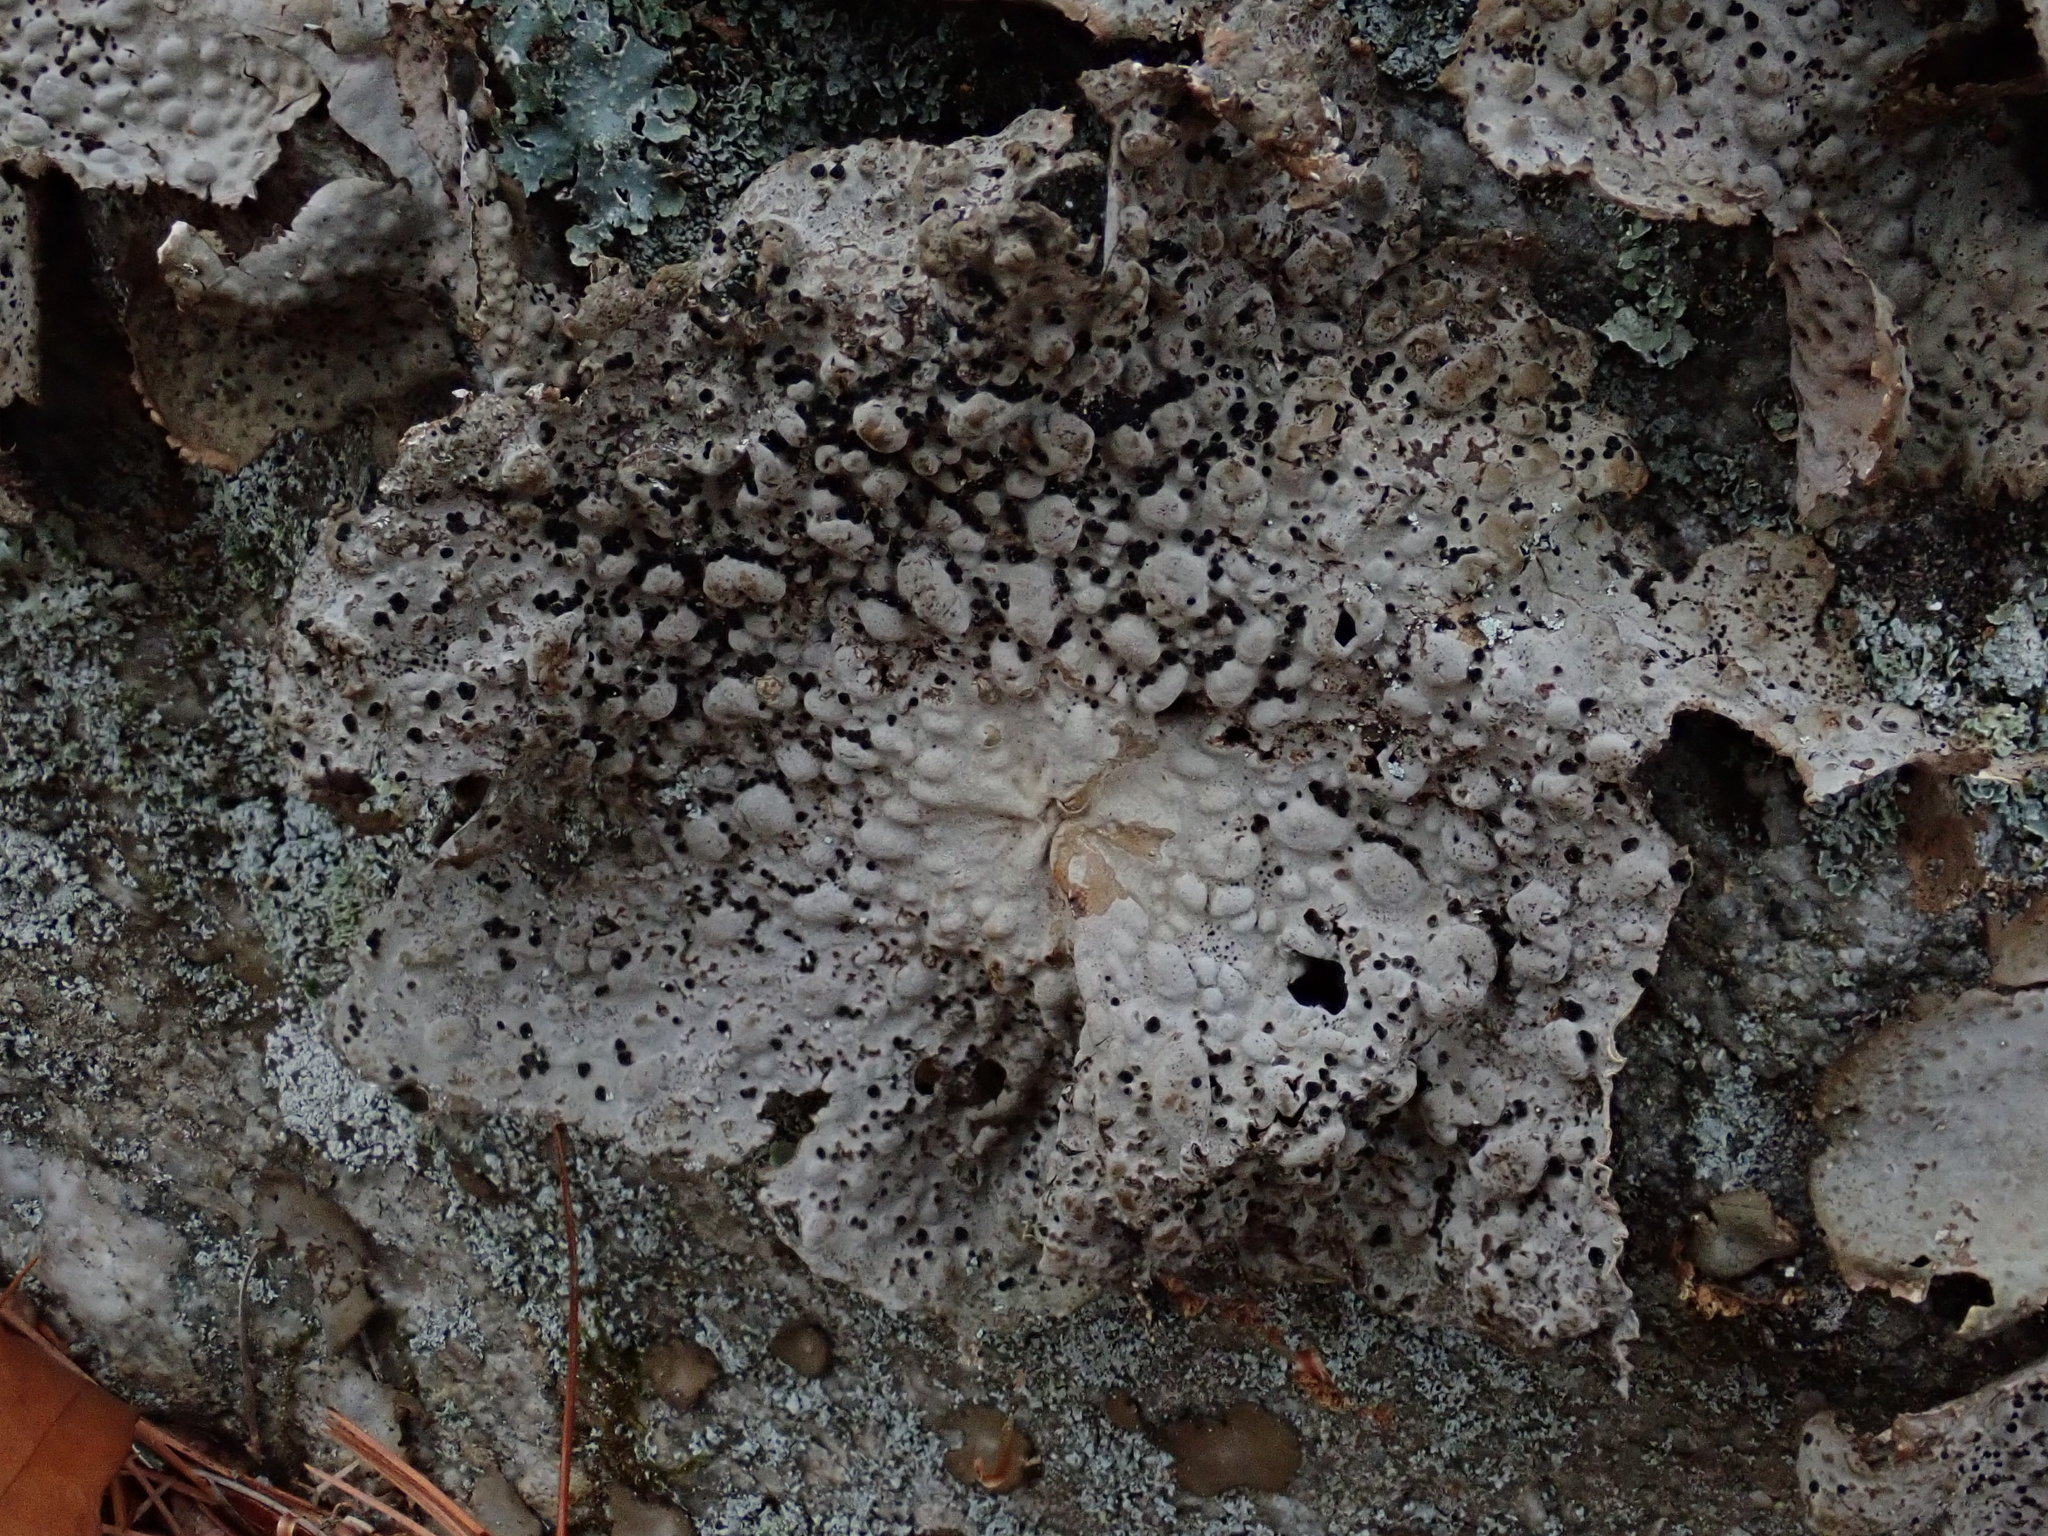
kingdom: Fungi
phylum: Ascomycota
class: Lecanoromycetes
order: Umbilicariales
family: Umbilicariaceae
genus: Lasallia
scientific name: Lasallia papulosa
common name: Common toadskin lichen
